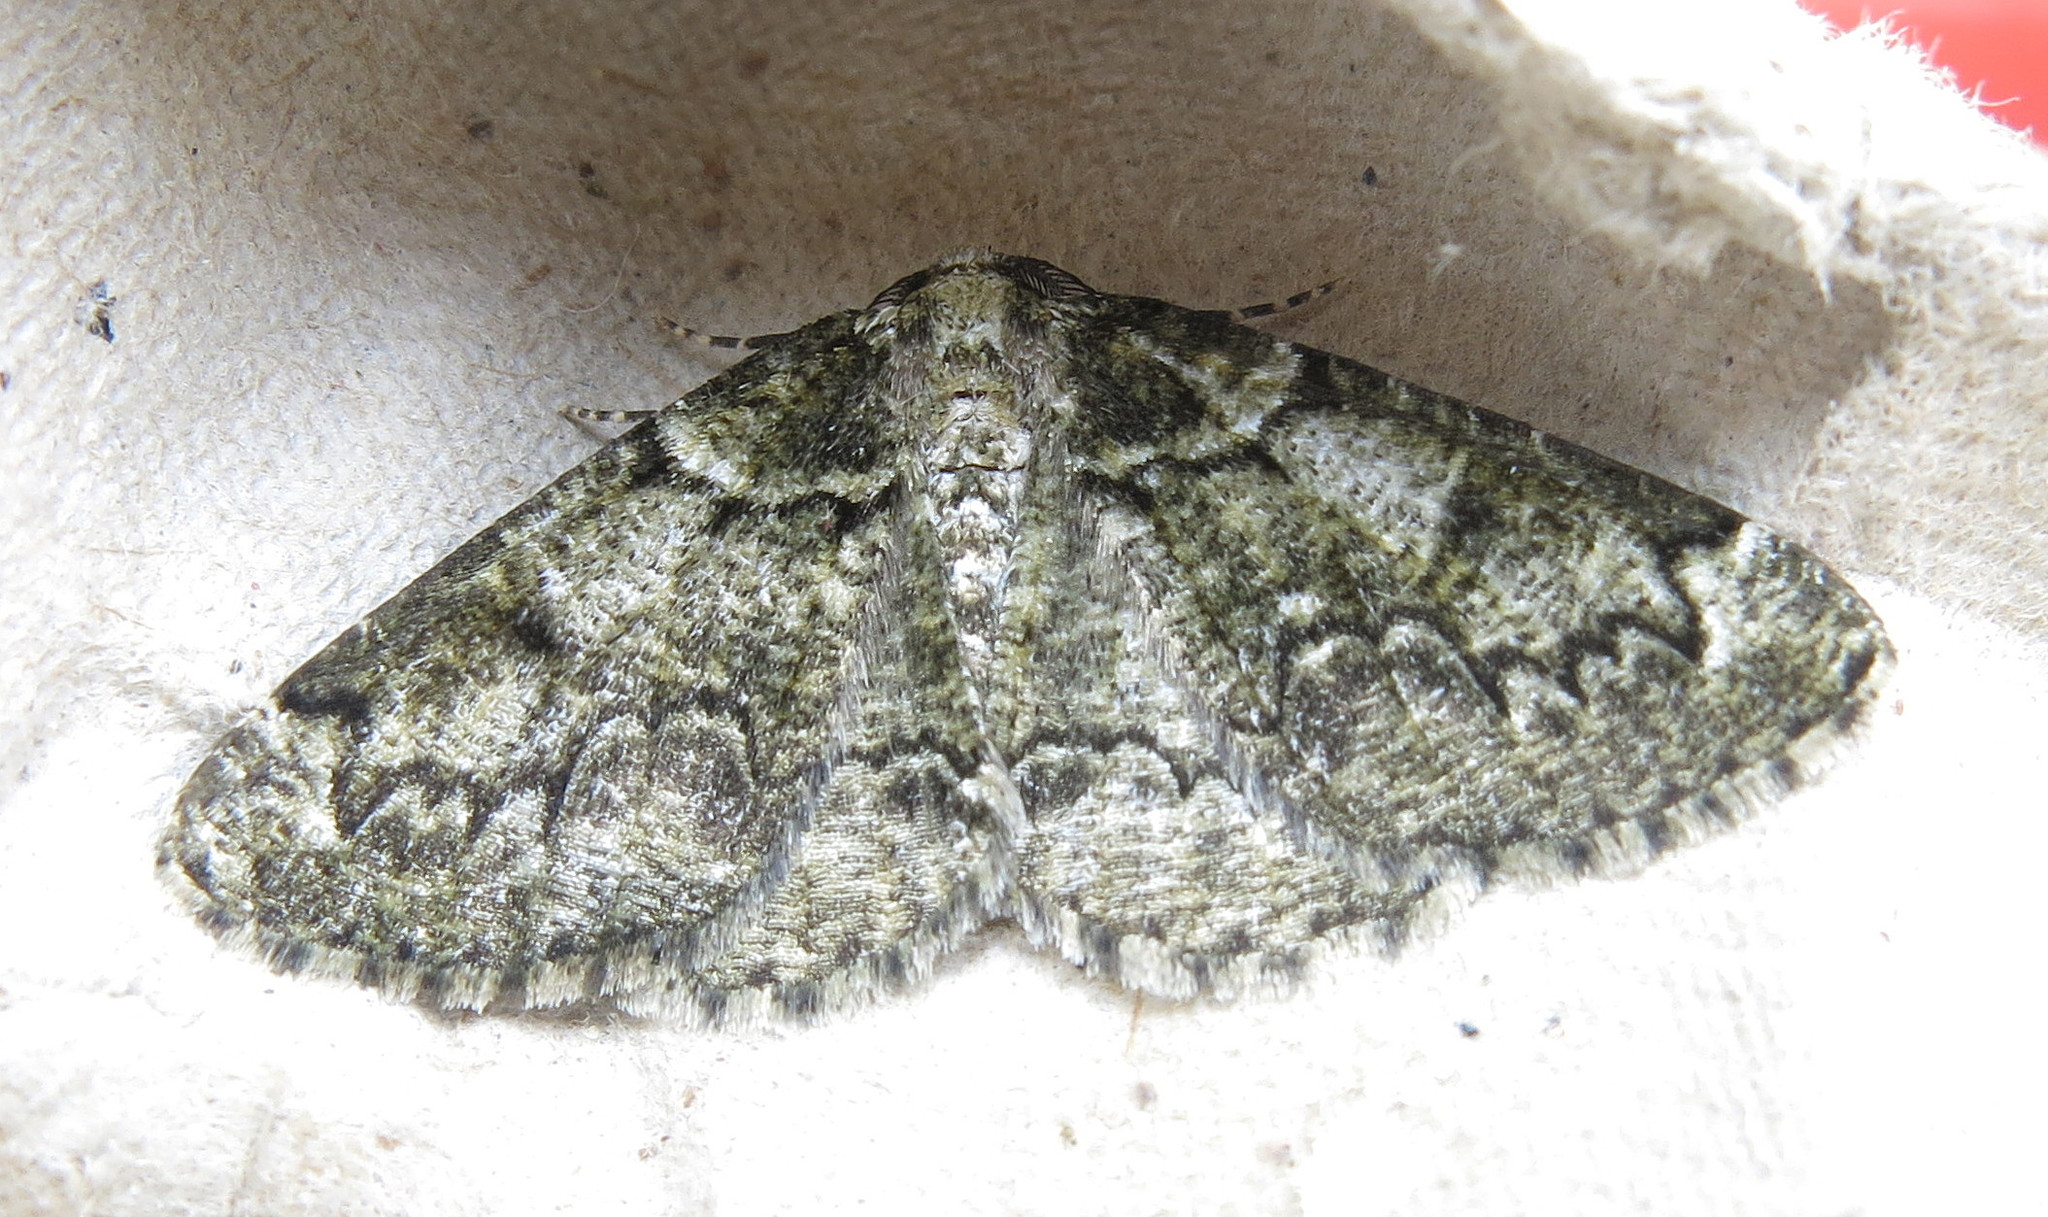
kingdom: Animalia
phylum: Arthropoda
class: Insecta
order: Lepidoptera
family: Geometridae
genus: Cleorodes
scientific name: Cleorodes lichenaria
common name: Brussels lace
